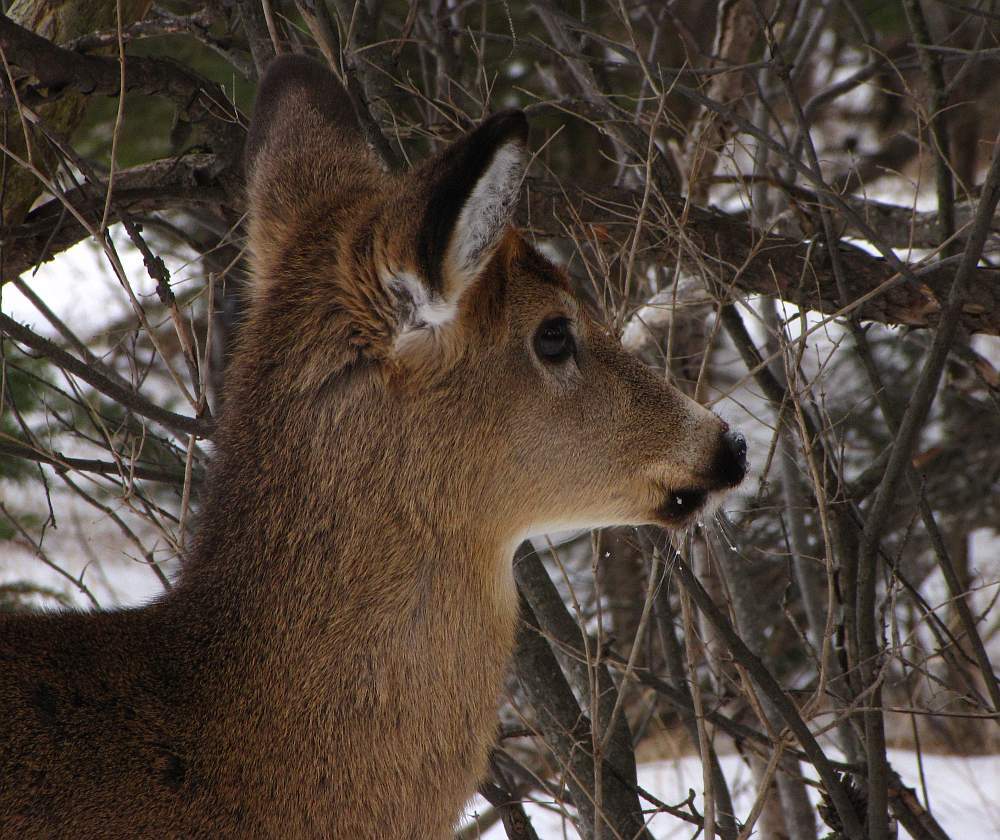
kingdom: Animalia
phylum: Chordata
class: Mammalia
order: Artiodactyla
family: Cervidae
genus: Odocoileus
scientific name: Odocoileus virginianus
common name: White-tailed deer
